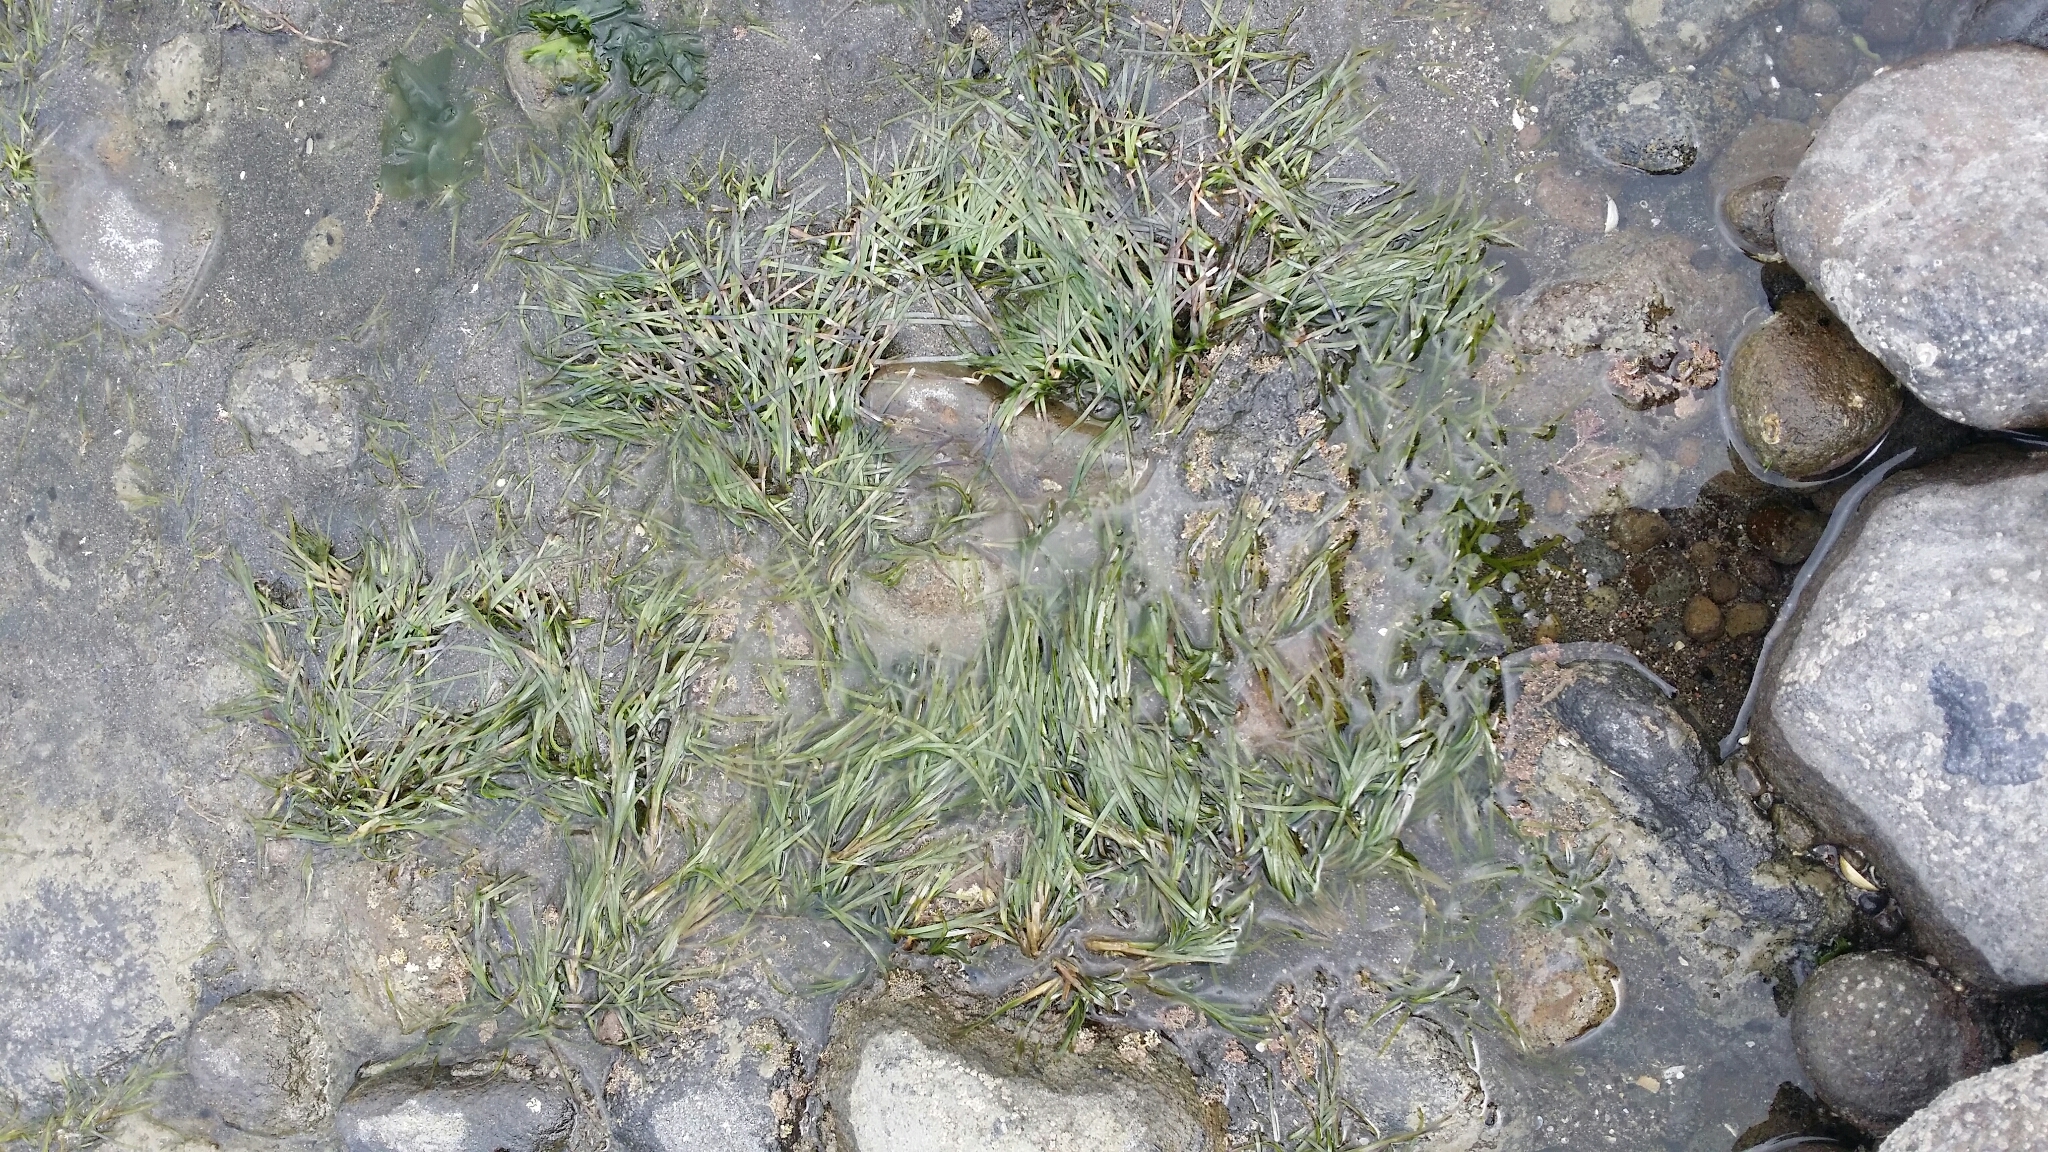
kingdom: Plantae
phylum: Tracheophyta
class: Liliopsida
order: Alismatales
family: Zosteraceae
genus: Zostera
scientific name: Zostera novazelandica
